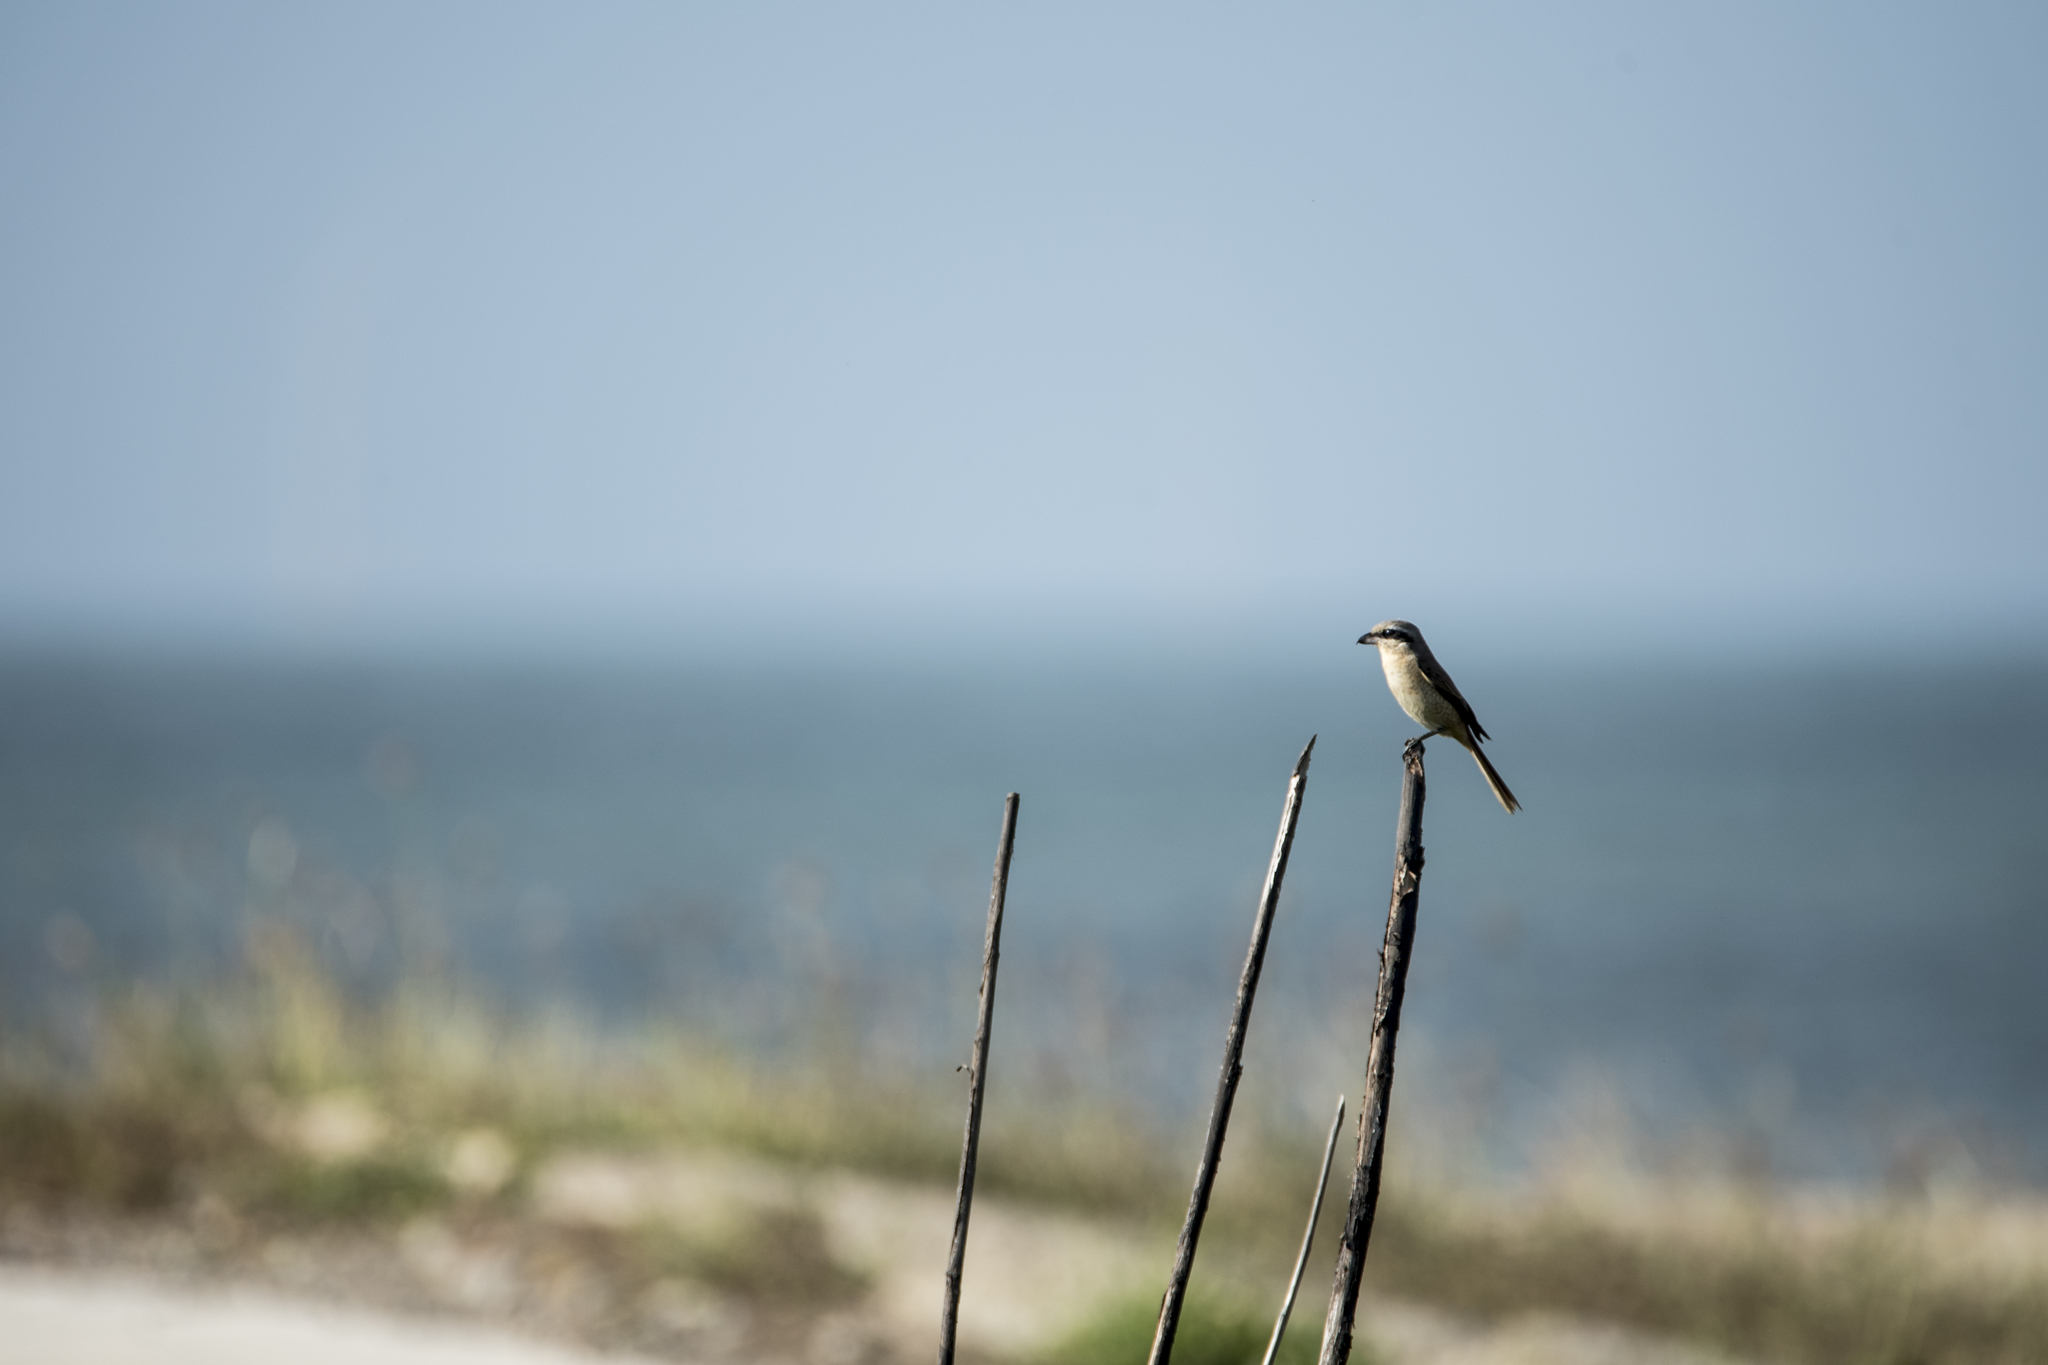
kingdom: Animalia
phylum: Chordata
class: Aves
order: Passeriformes
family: Laniidae
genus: Lanius
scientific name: Lanius cristatus
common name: Brown shrike
